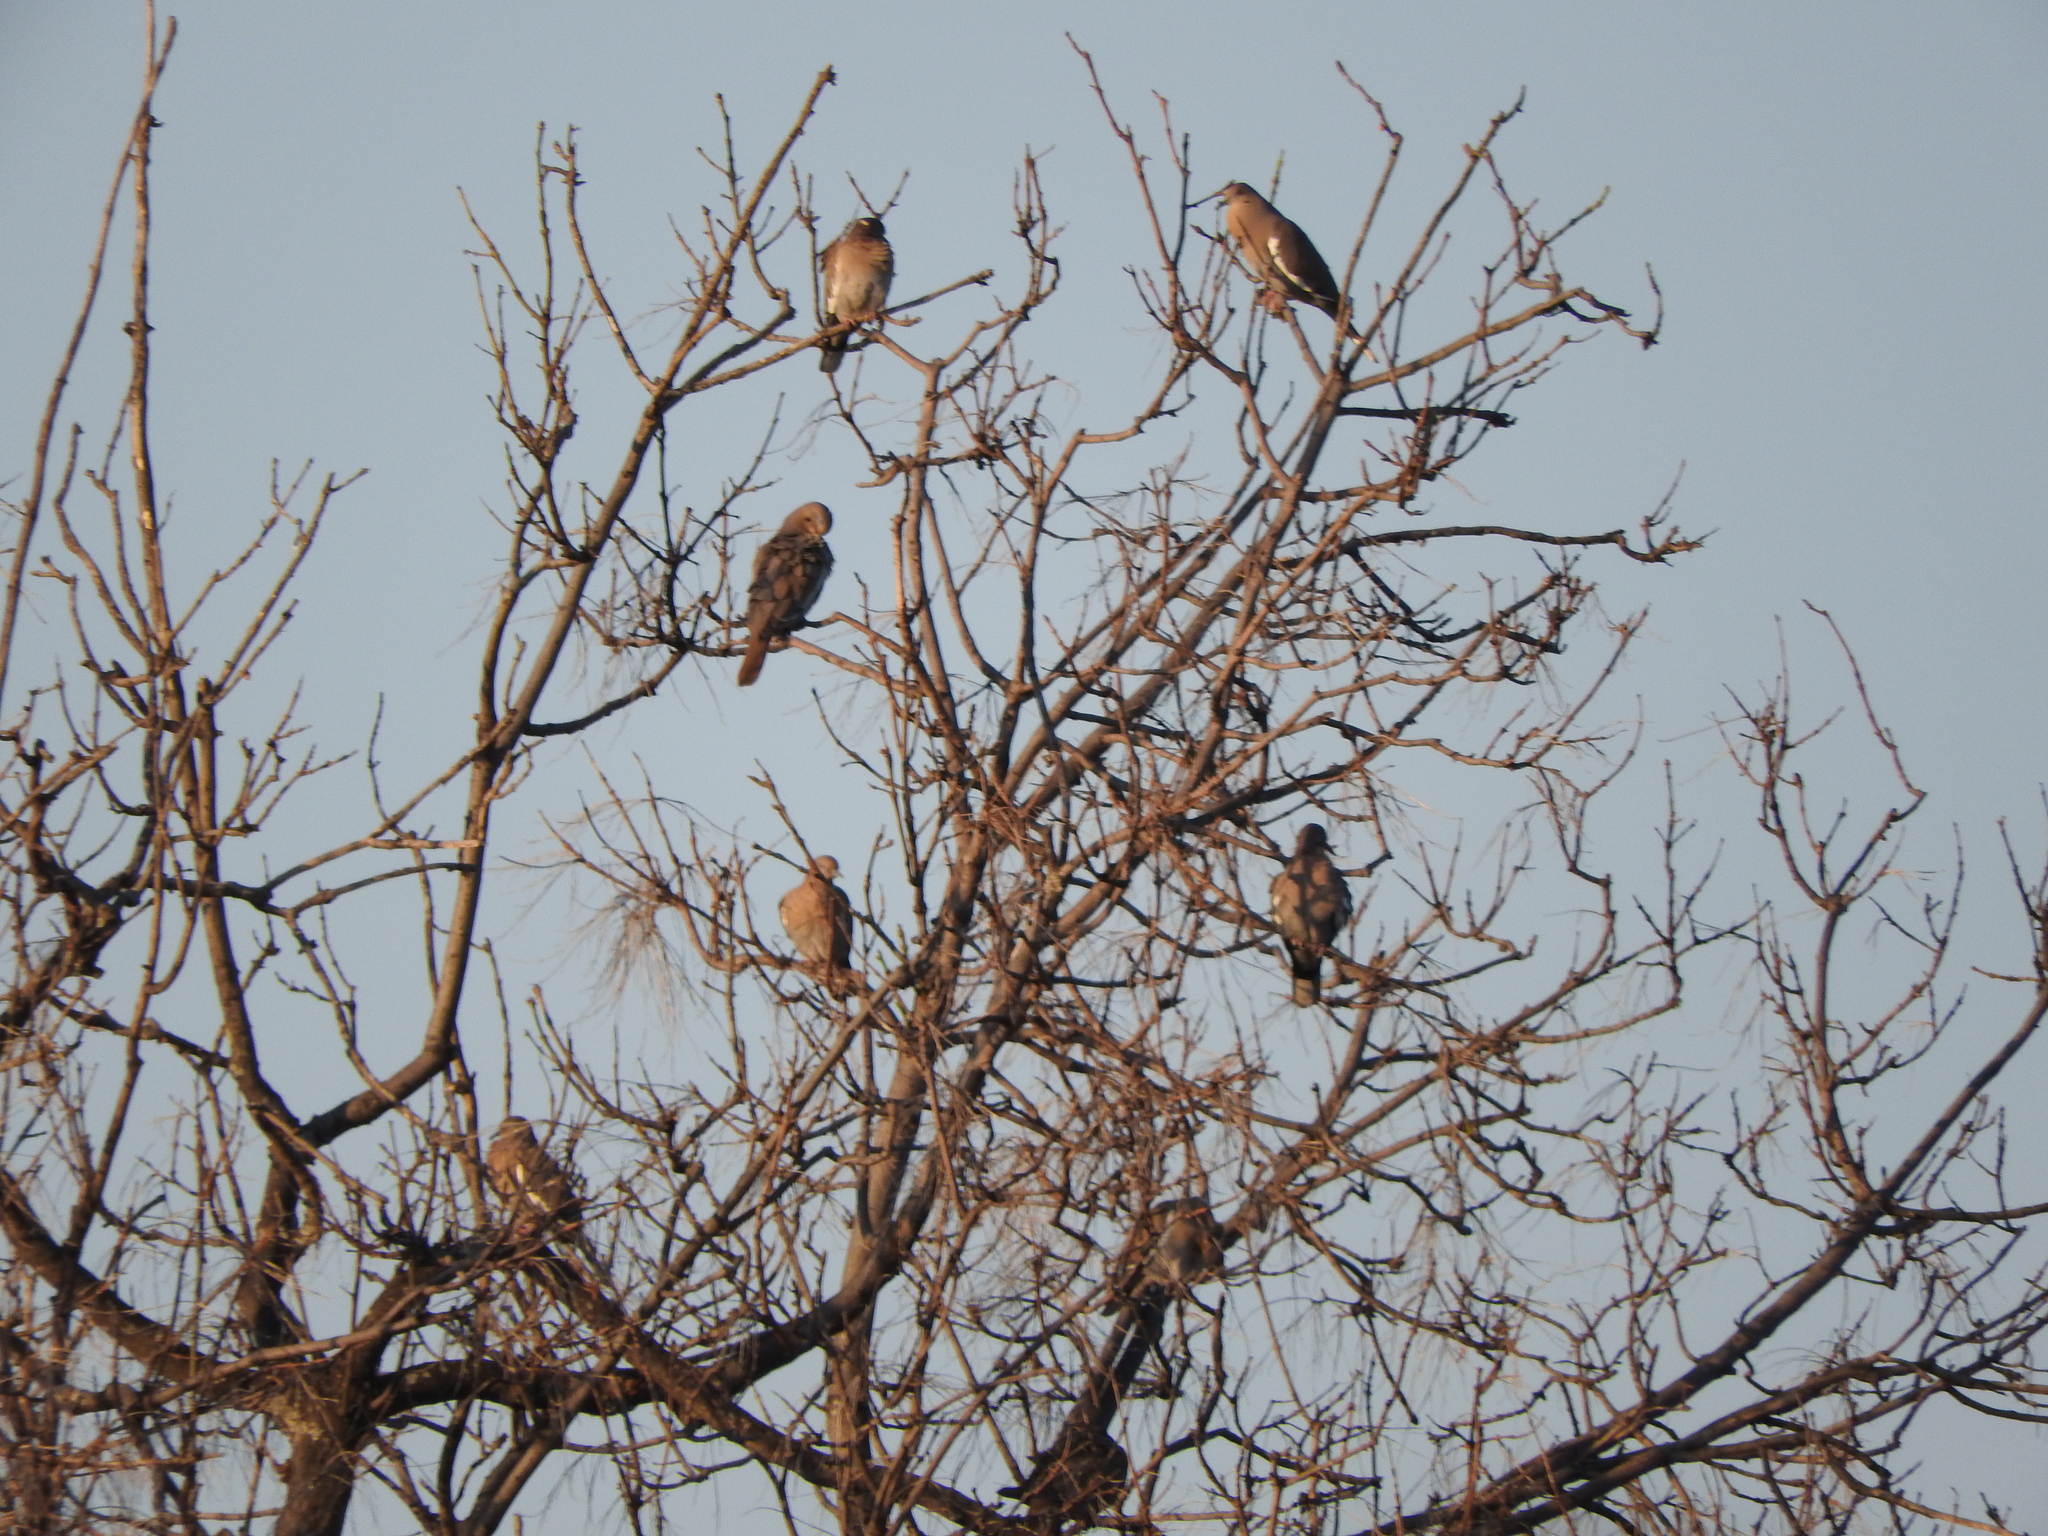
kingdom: Animalia
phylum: Chordata
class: Aves
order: Columbiformes
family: Columbidae
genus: Zenaida
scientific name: Zenaida asiatica
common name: White-winged dove
